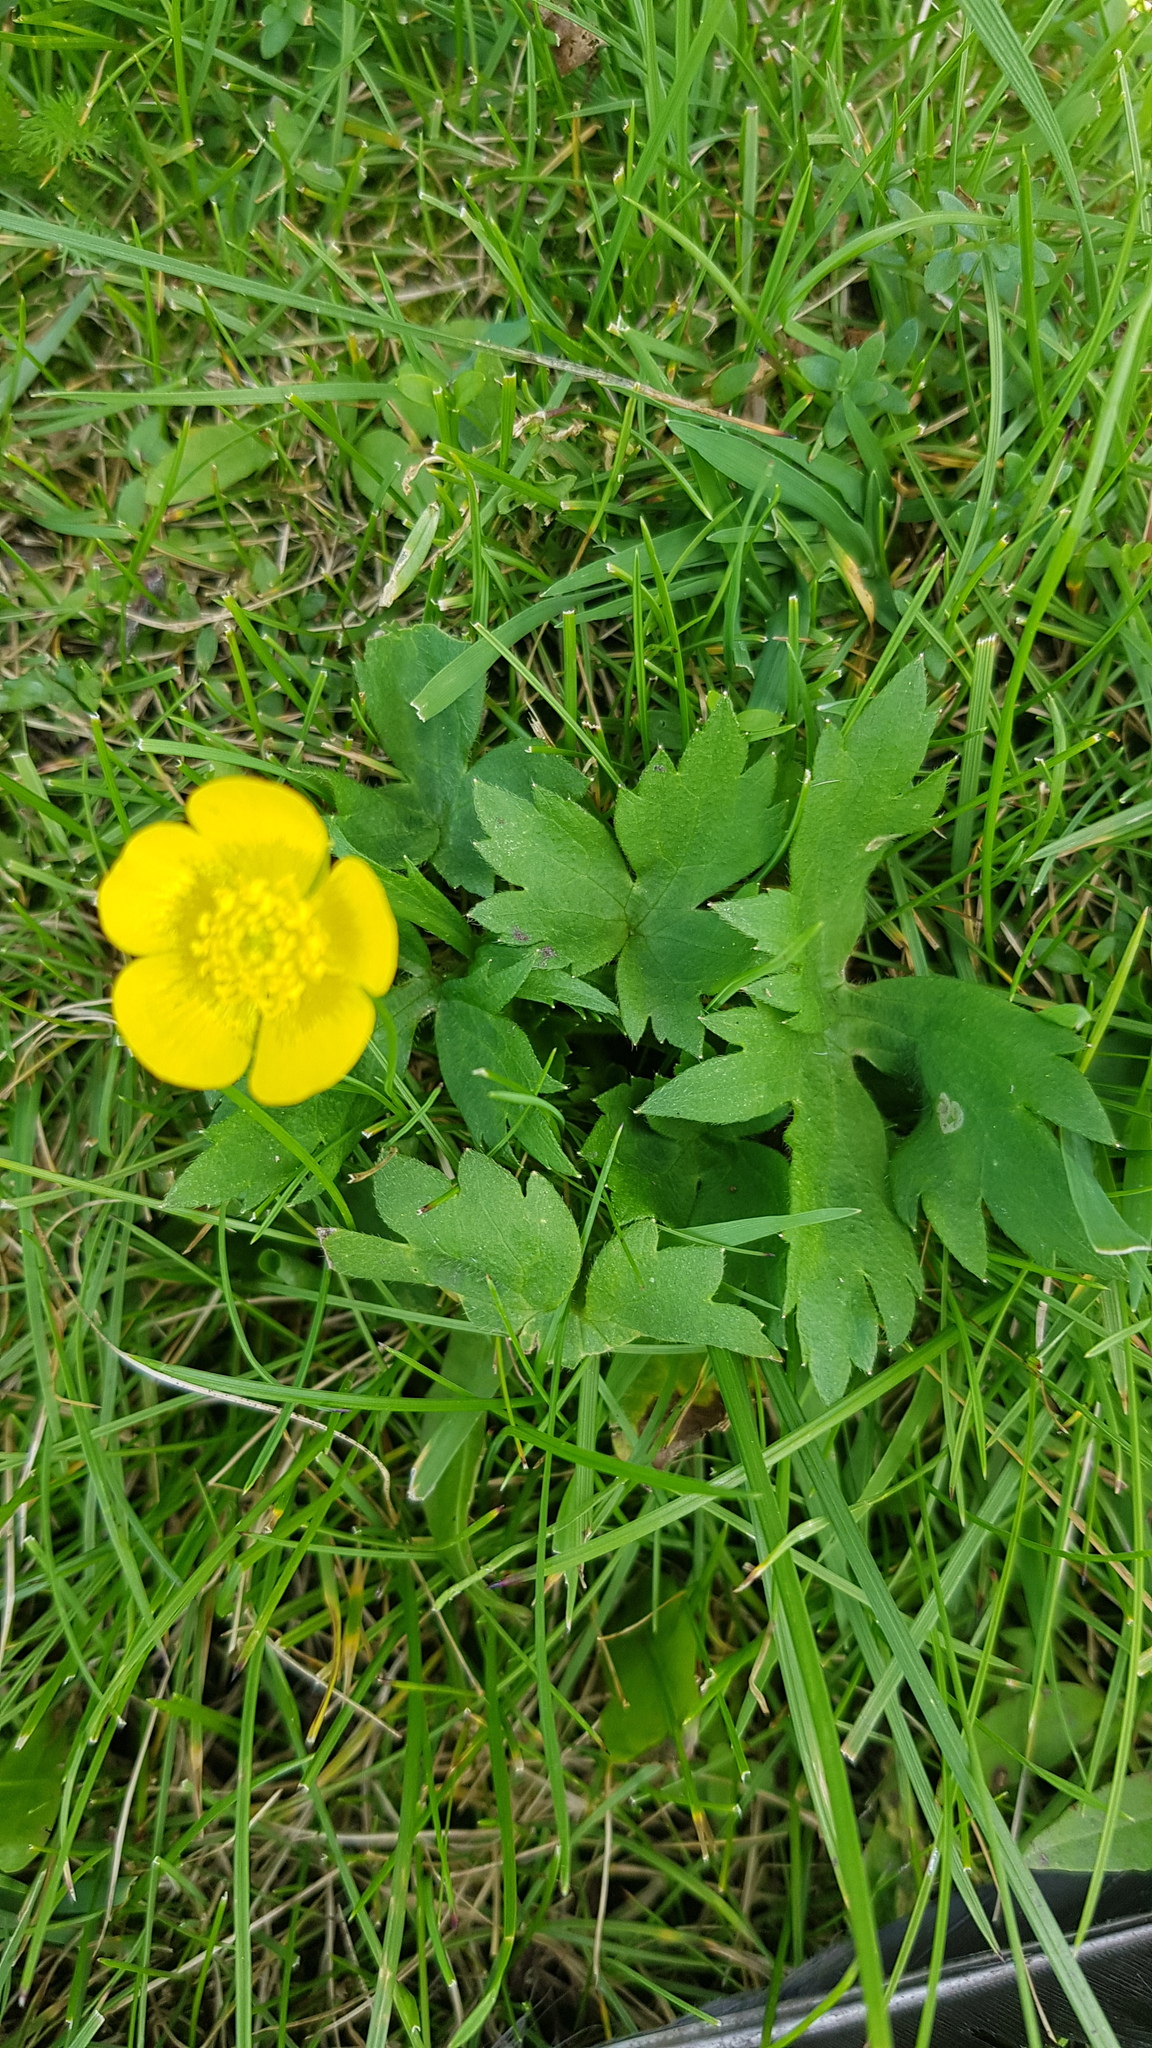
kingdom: Plantae
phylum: Tracheophyta
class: Magnoliopsida
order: Ranunculales
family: Ranunculaceae
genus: Ranunculus
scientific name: Ranunculus repens
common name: Creeping buttercup
